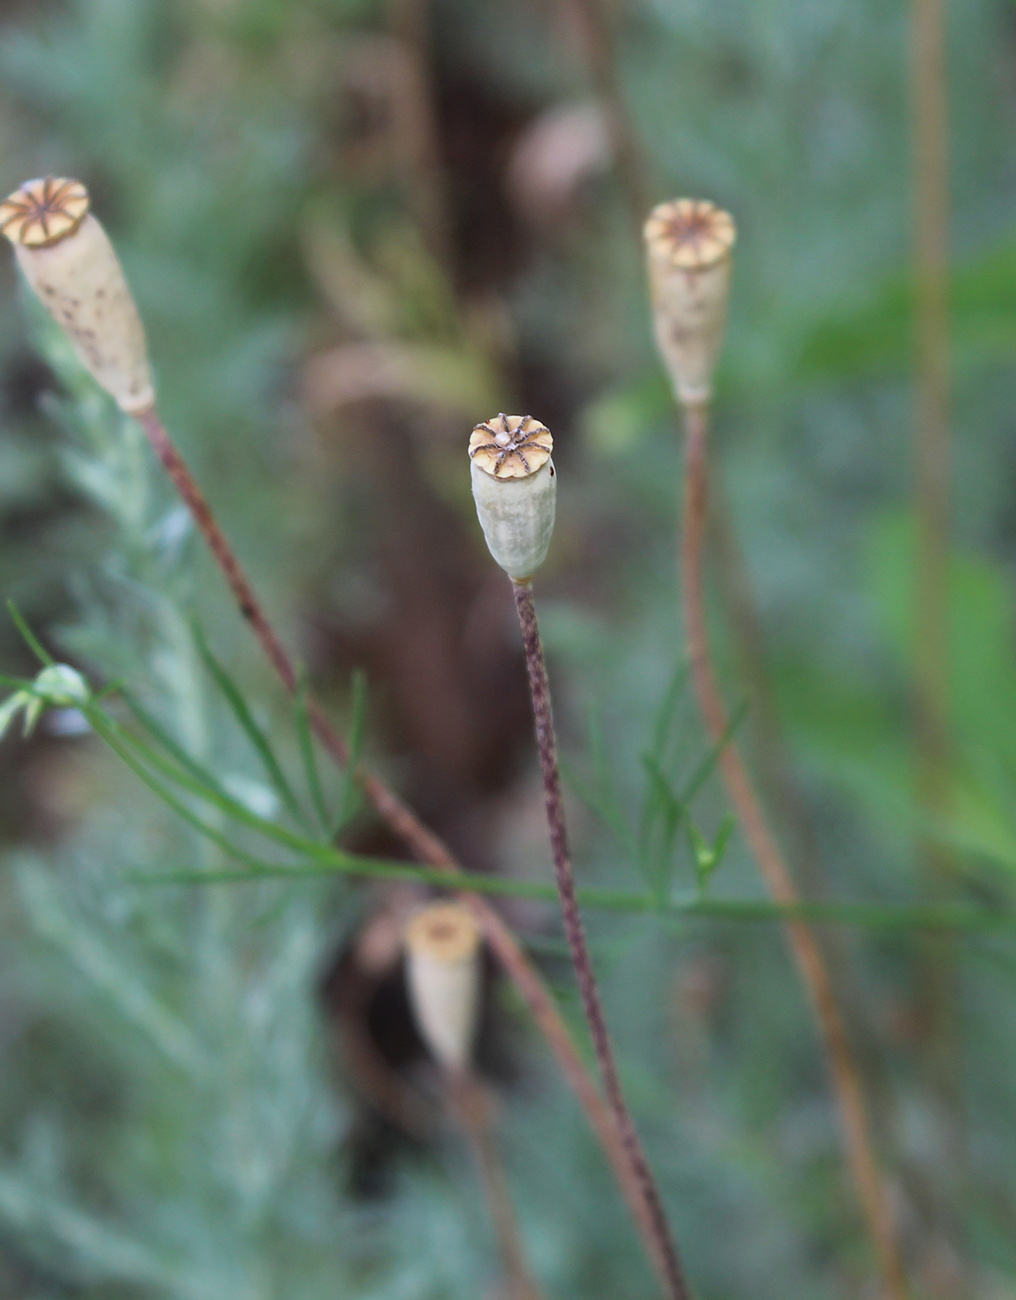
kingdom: Plantae
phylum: Tracheophyta
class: Magnoliopsida
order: Ranunculales
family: Papaveraceae
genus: Papaver
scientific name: Papaver dubium
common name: Long-headed poppy
